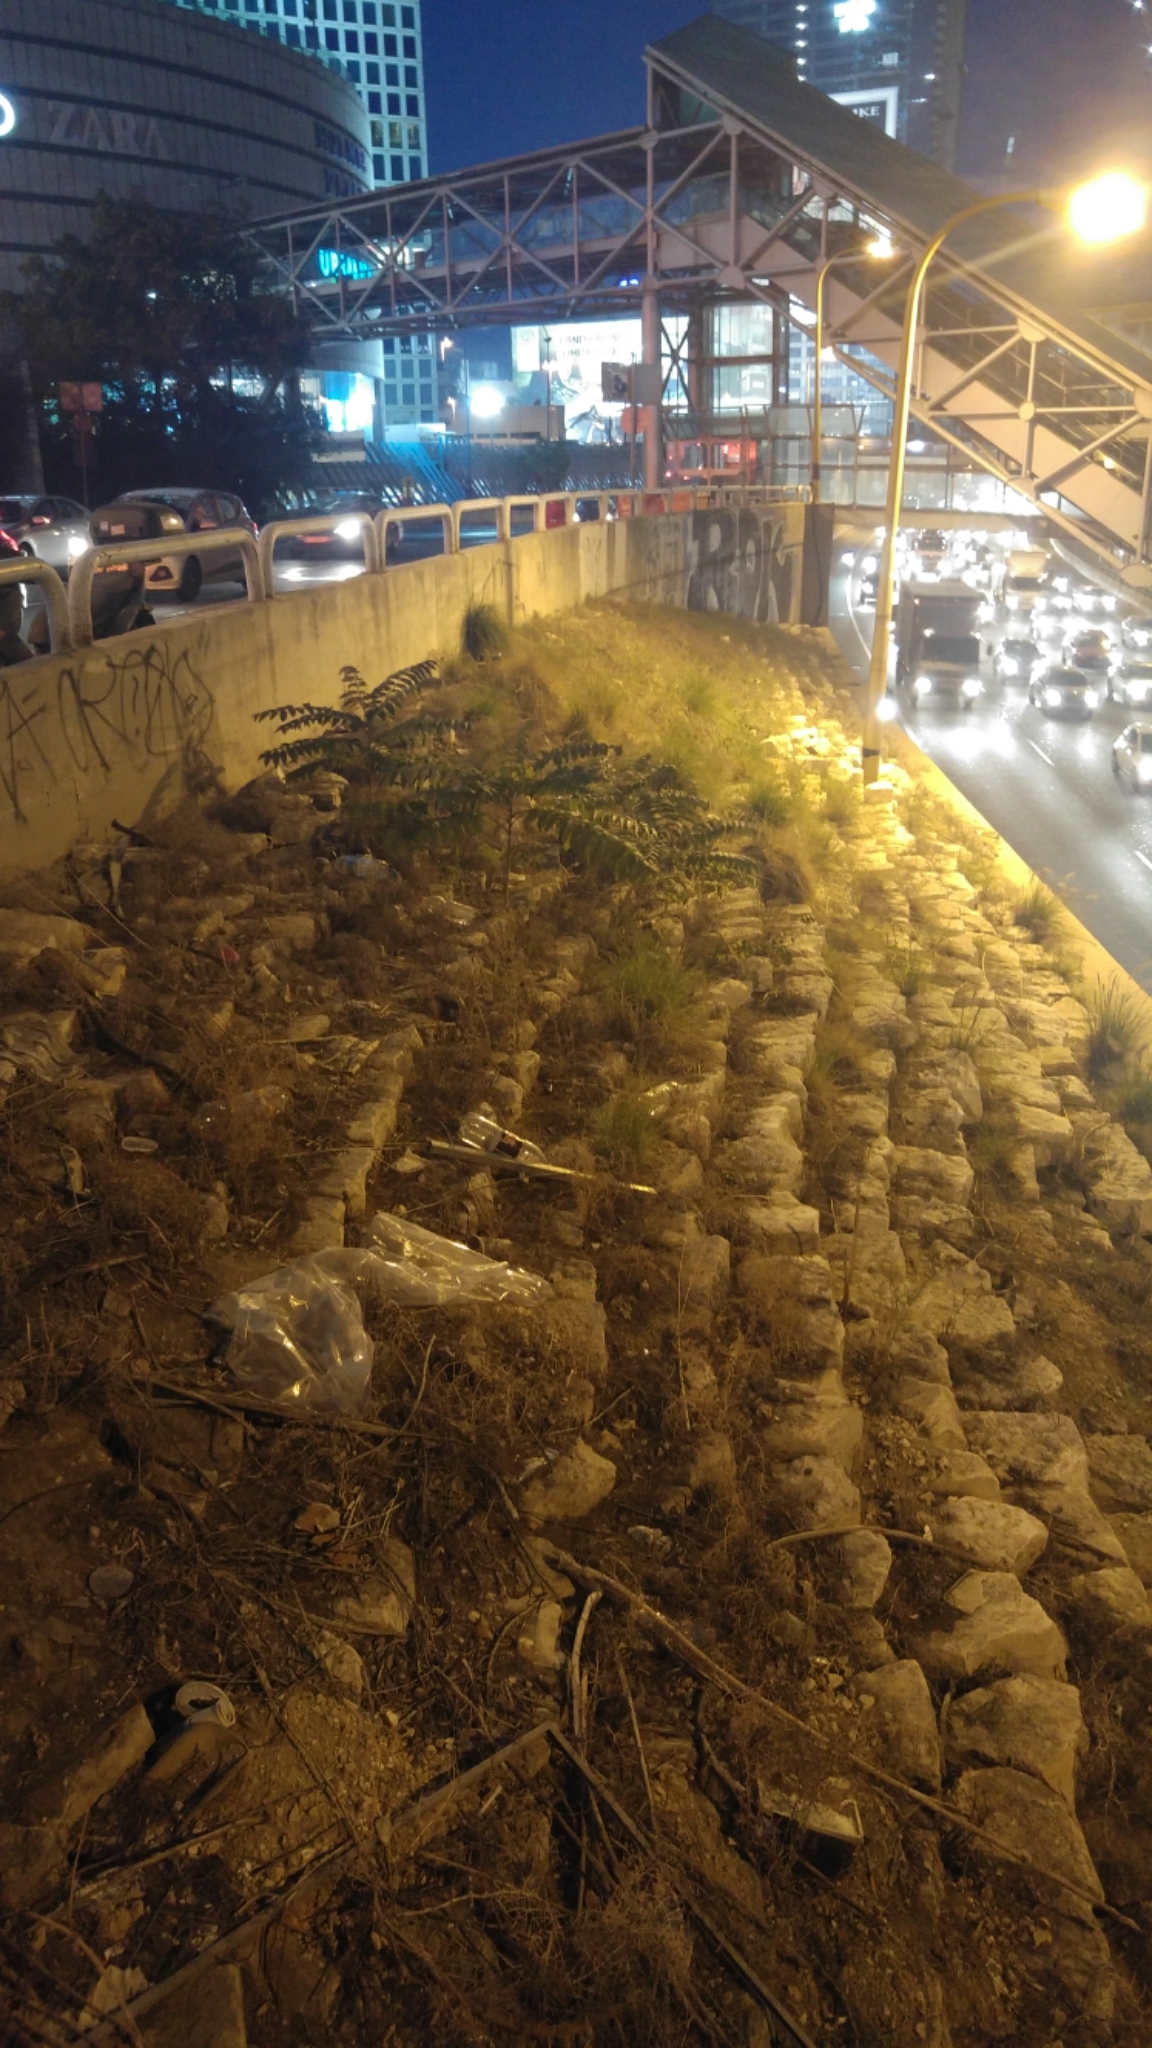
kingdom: Plantae
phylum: Tracheophyta
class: Magnoliopsida
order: Sapindales
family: Simaroubaceae
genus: Ailanthus
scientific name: Ailanthus altissima
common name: Tree-of-heaven
